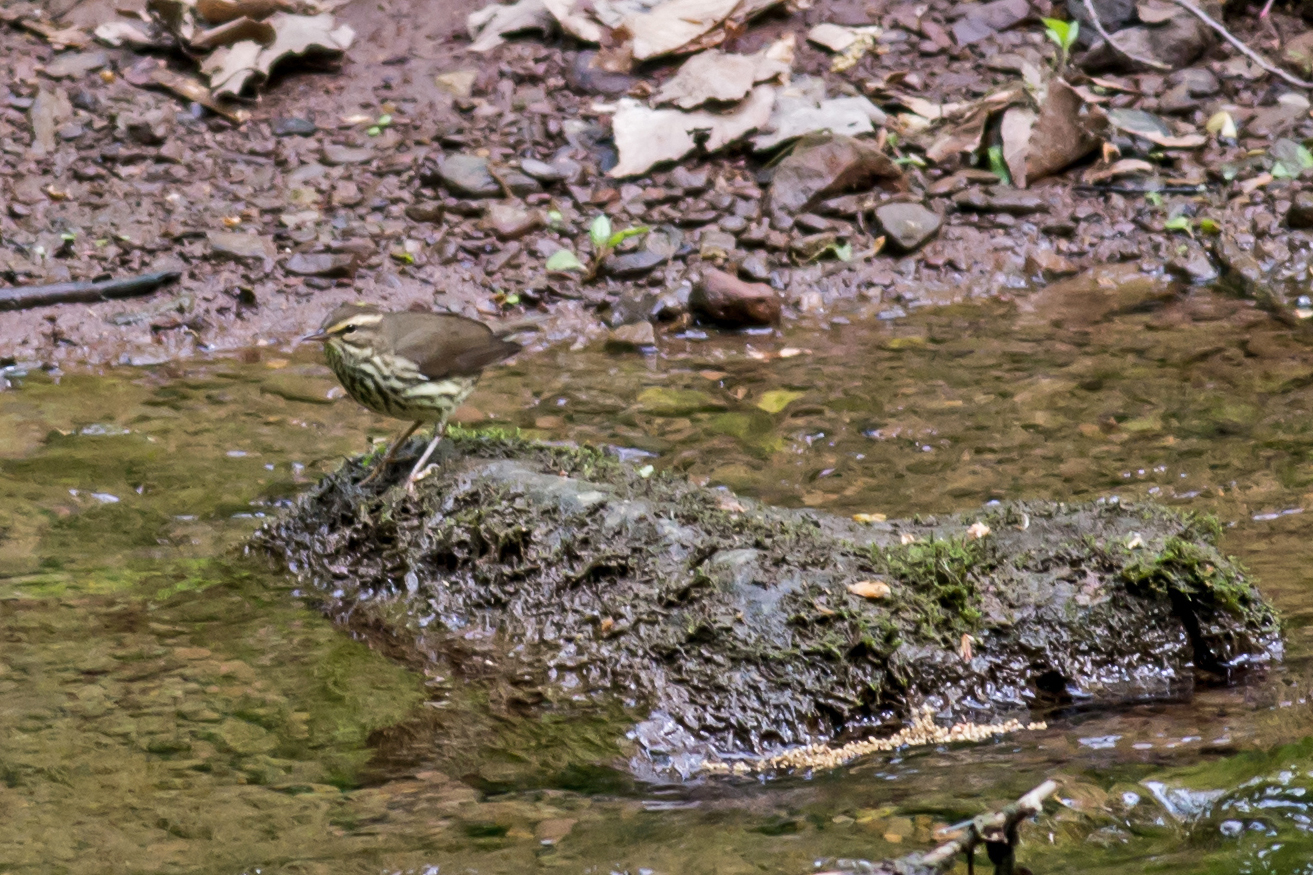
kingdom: Animalia
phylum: Chordata
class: Aves
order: Passeriformes
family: Parulidae
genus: Parkesia
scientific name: Parkesia noveboracensis
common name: Northern waterthrush
